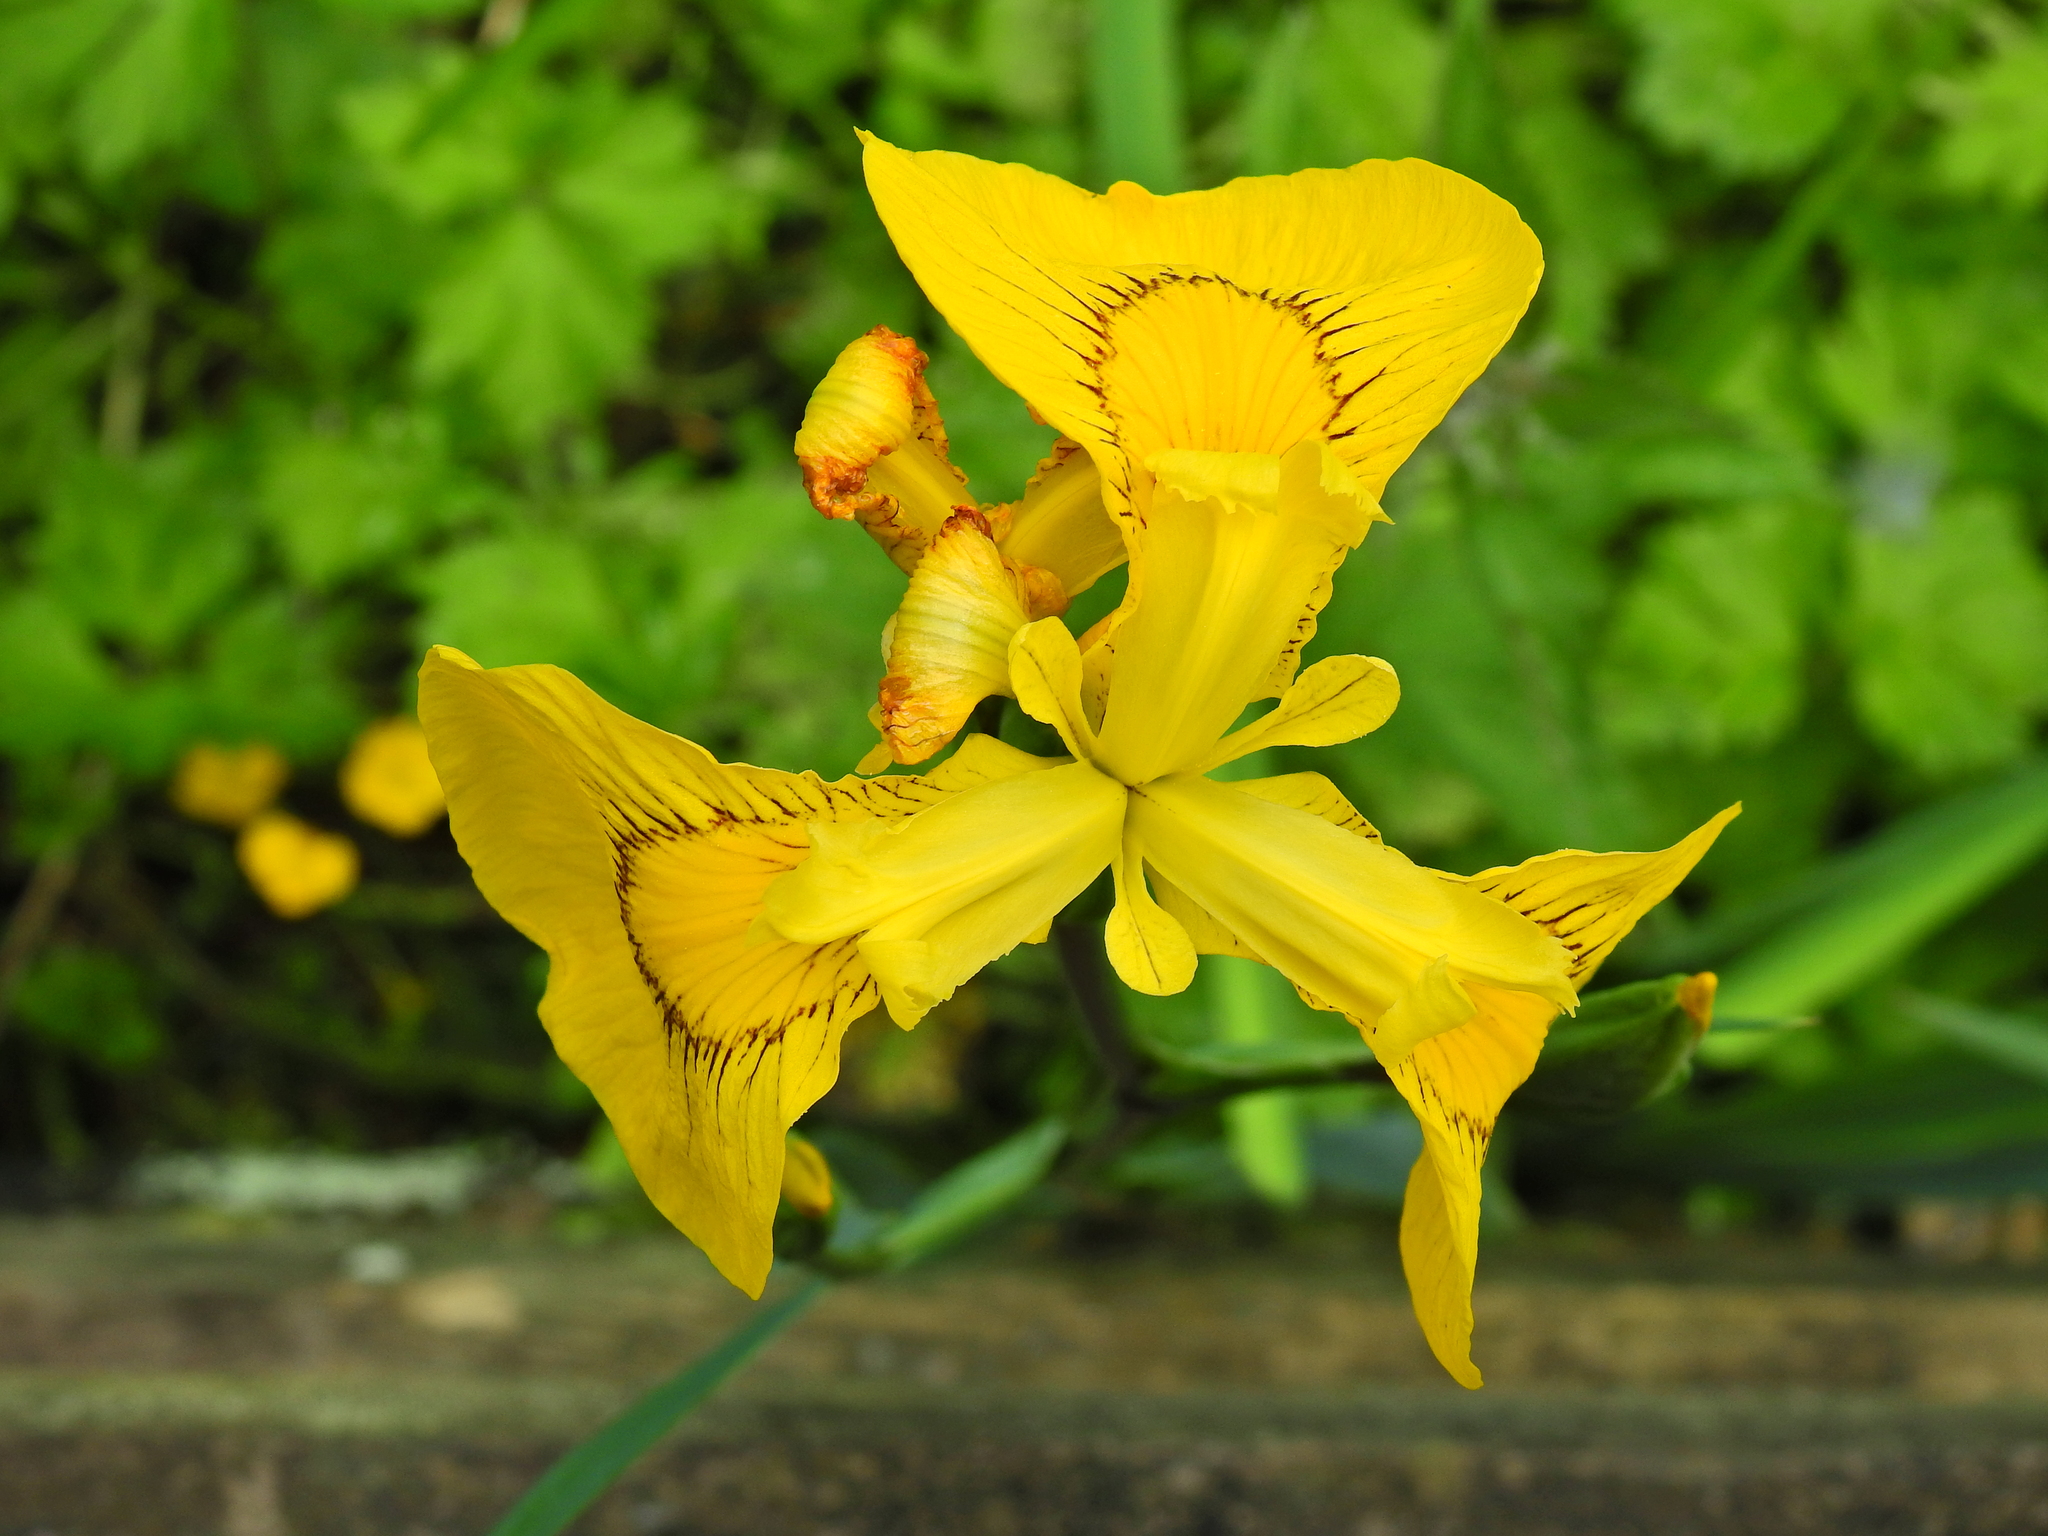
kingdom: Plantae
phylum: Tracheophyta
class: Liliopsida
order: Asparagales
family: Iridaceae
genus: Iris
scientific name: Iris pseudacorus
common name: Yellow flag
